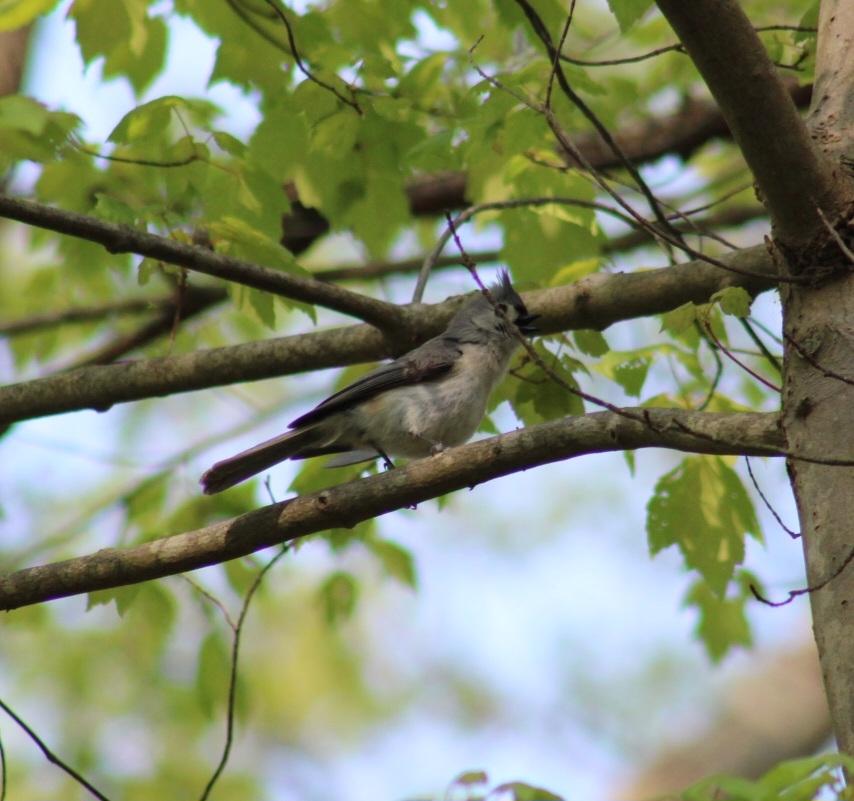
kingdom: Animalia
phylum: Chordata
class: Aves
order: Passeriformes
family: Paridae
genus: Baeolophus
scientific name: Baeolophus bicolor
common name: Tufted titmouse
